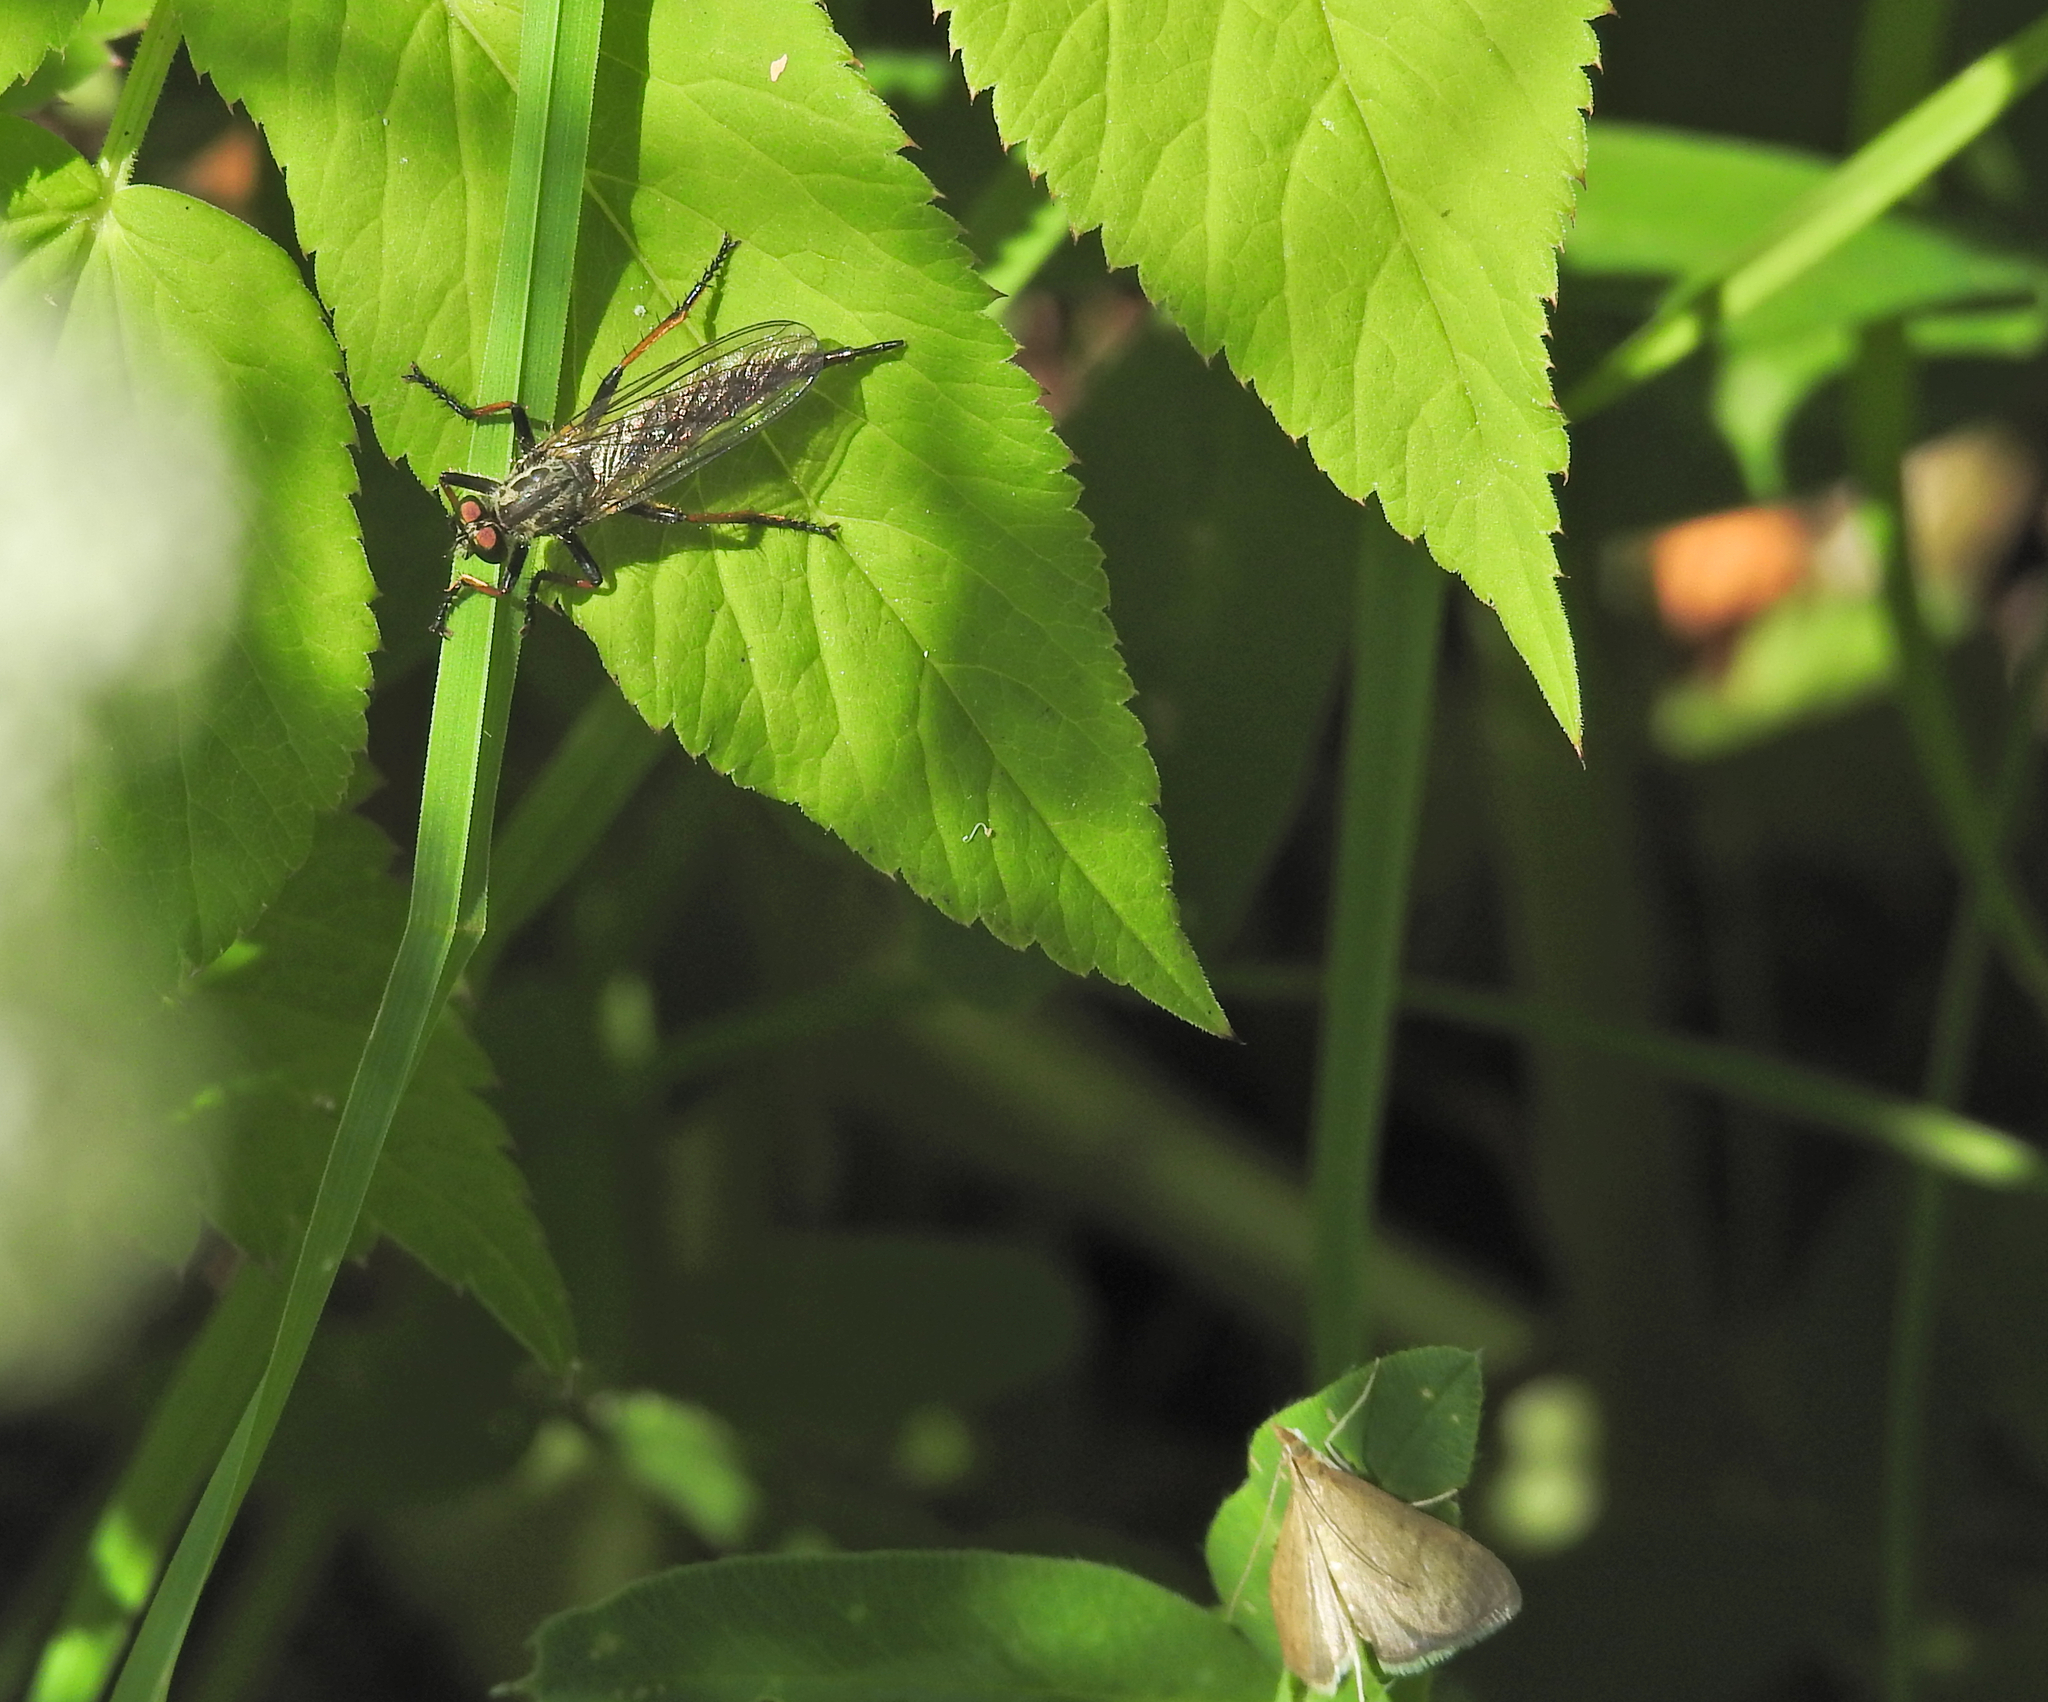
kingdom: Animalia
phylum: Arthropoda
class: Insecta
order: Diptera
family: Asilidae
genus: Neoitamus
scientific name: Neoitamus
